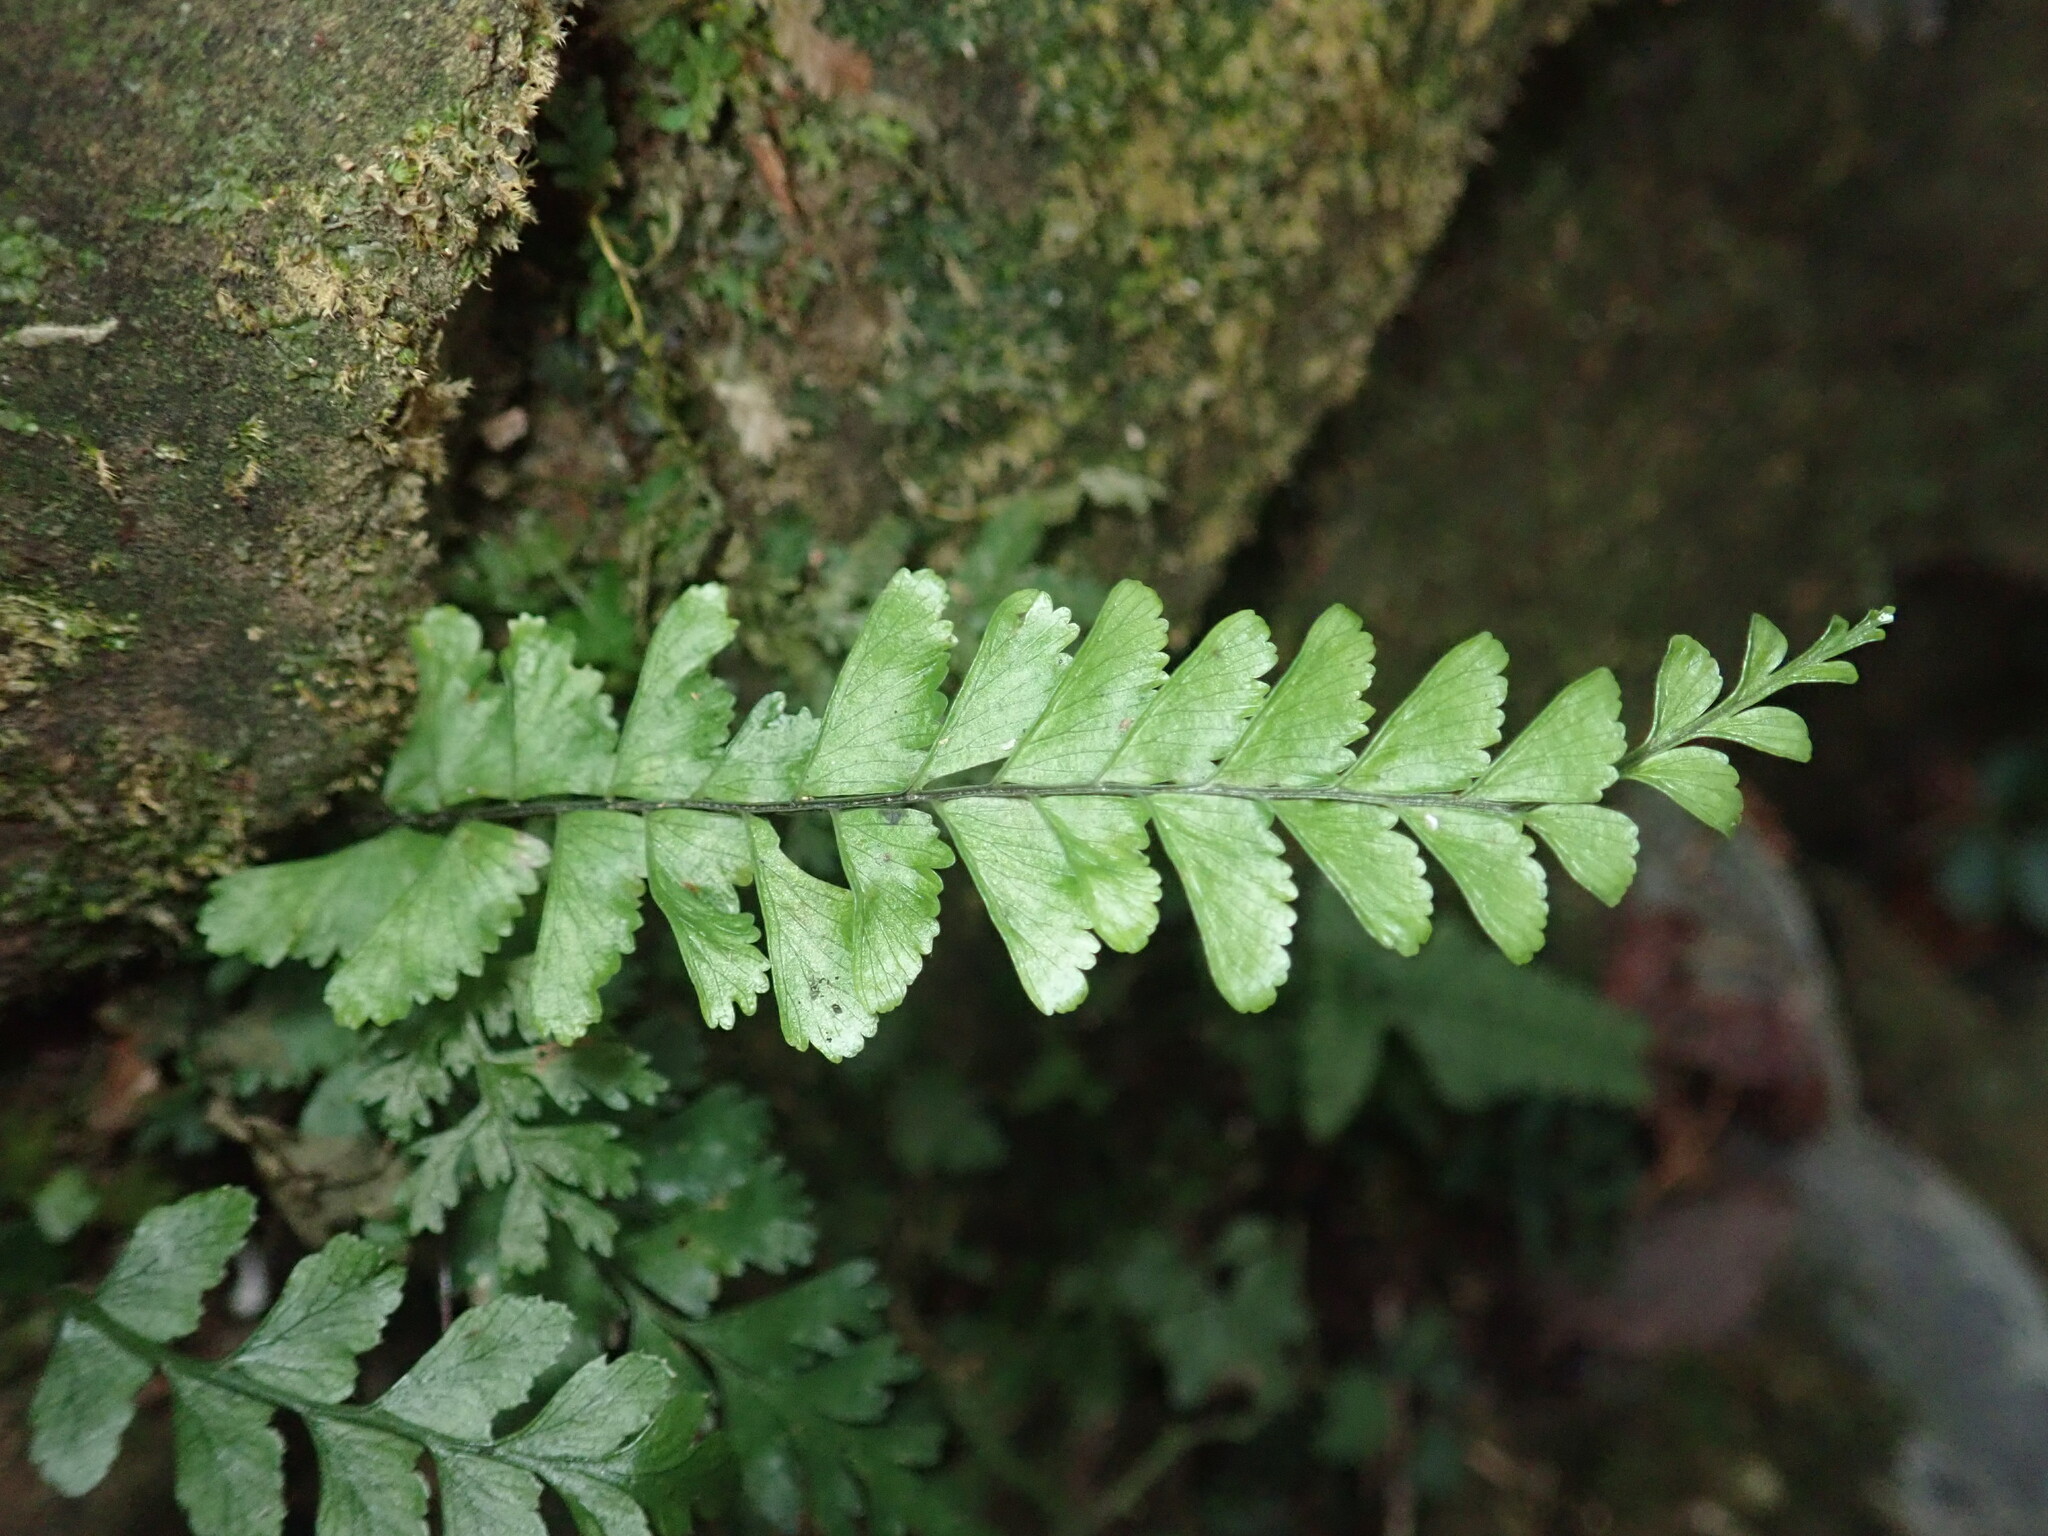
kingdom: Plantae
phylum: Tracheophyta
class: Polypodiopsida
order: Polypodiales
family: Aspleniaceae
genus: Hymenasplenium
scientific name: Hymenasplenium cheilosorum
